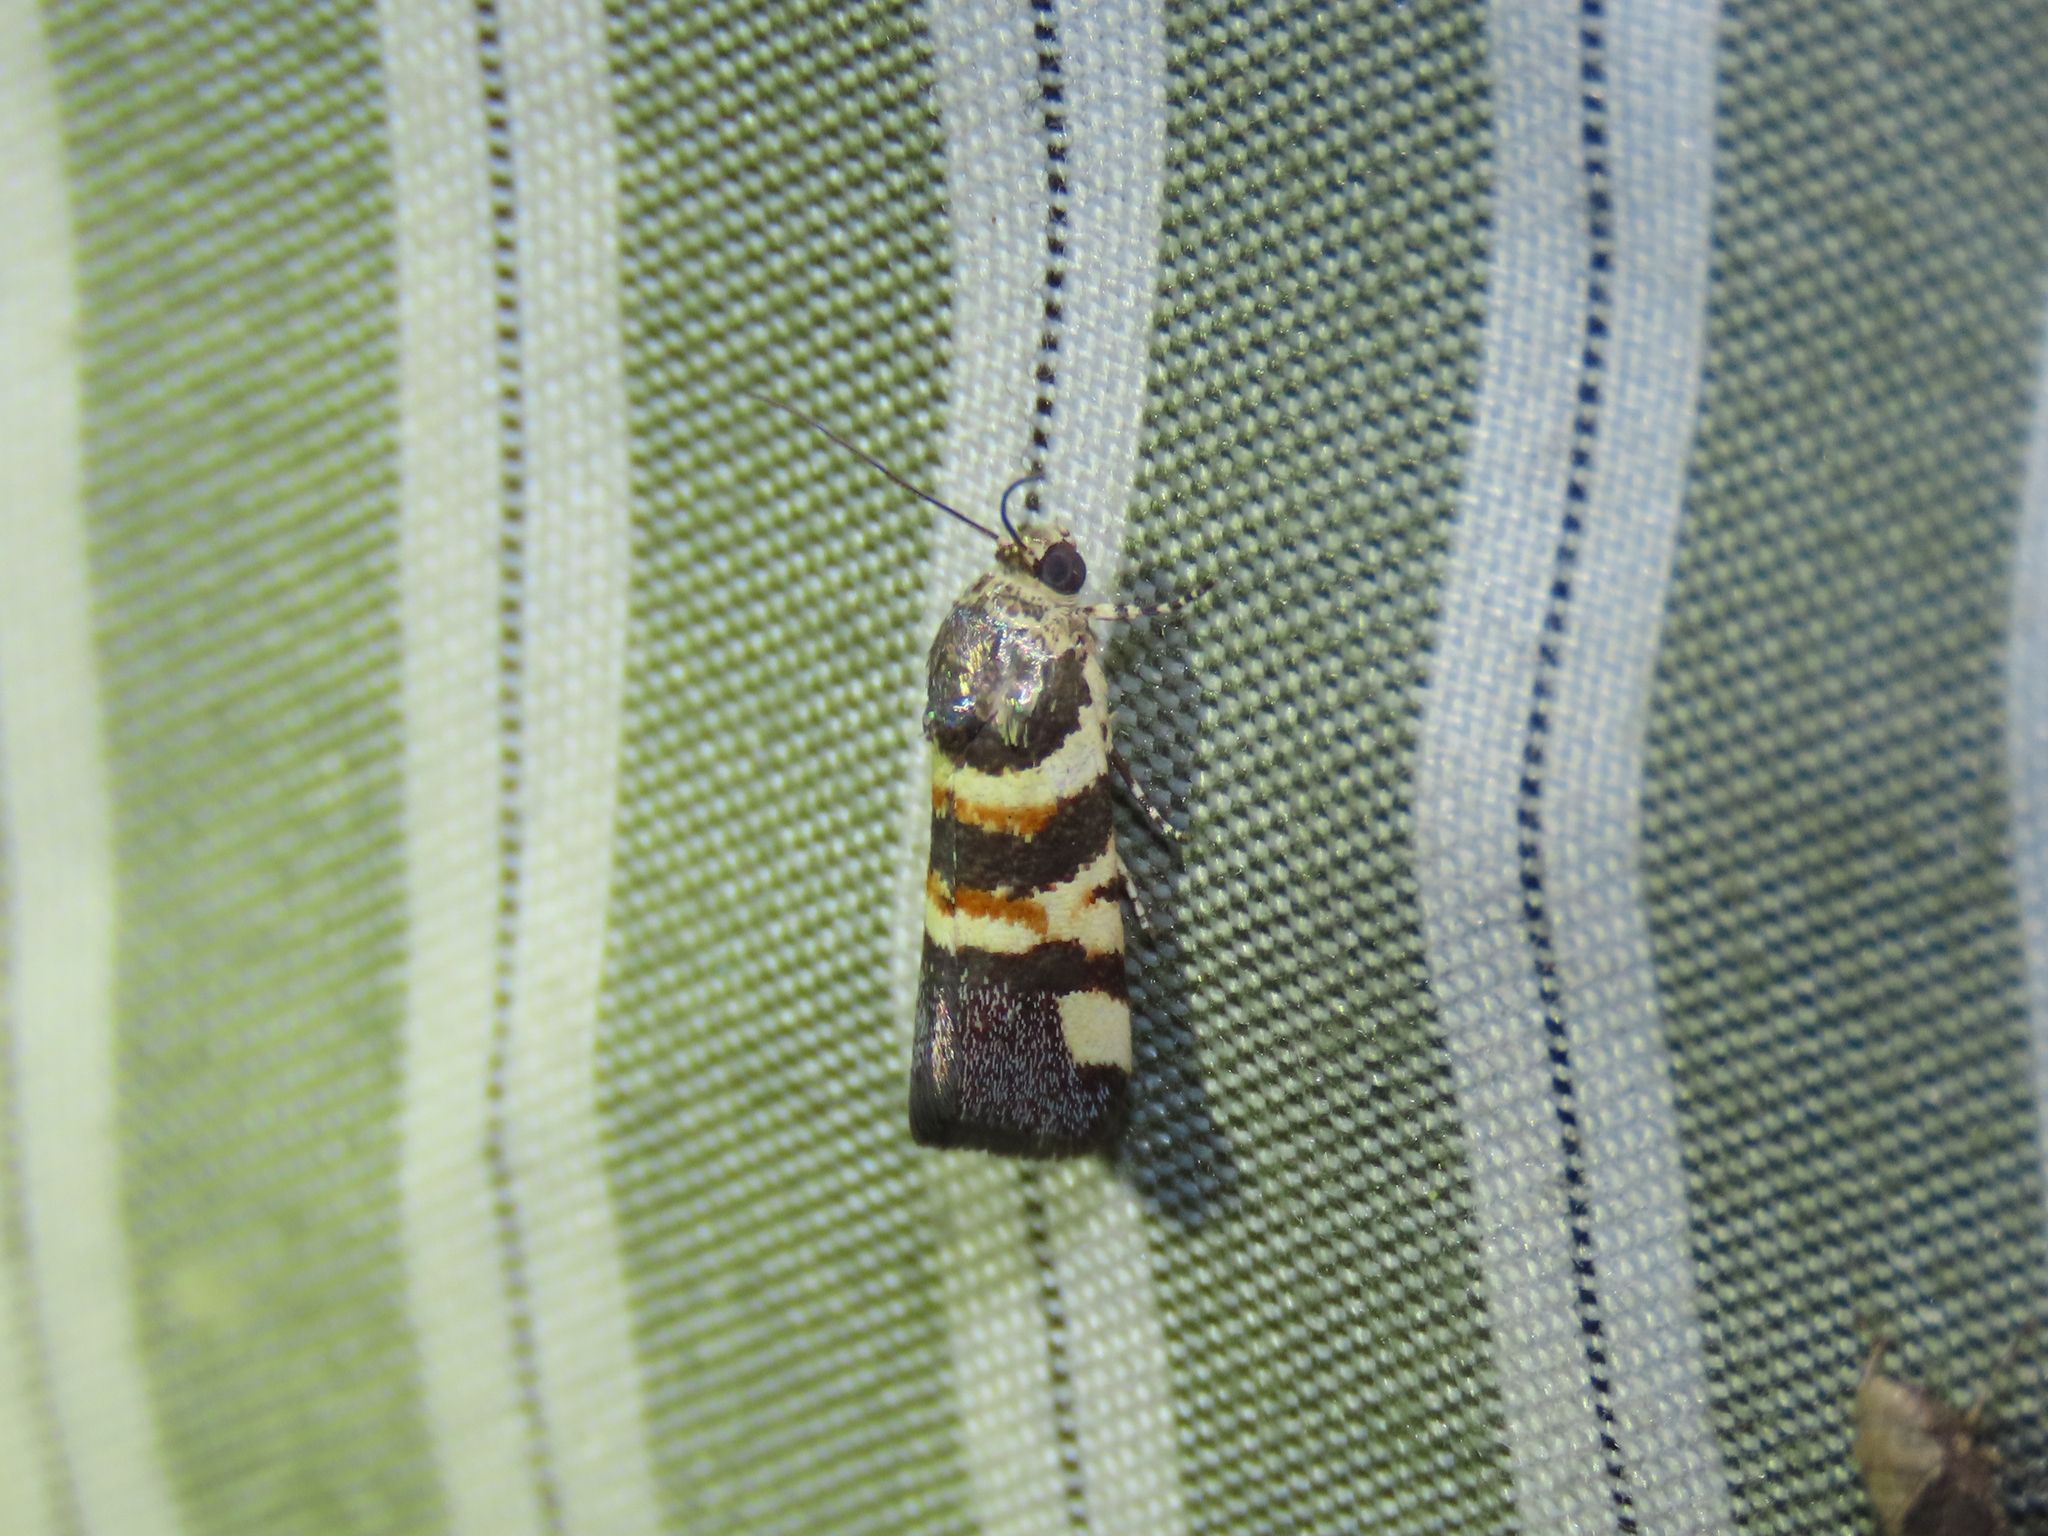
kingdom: Animalia
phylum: Arthropoda
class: Insecta
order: Lepidoptera
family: Noctuidae
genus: Spragueia
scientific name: Spragueia funeralis
